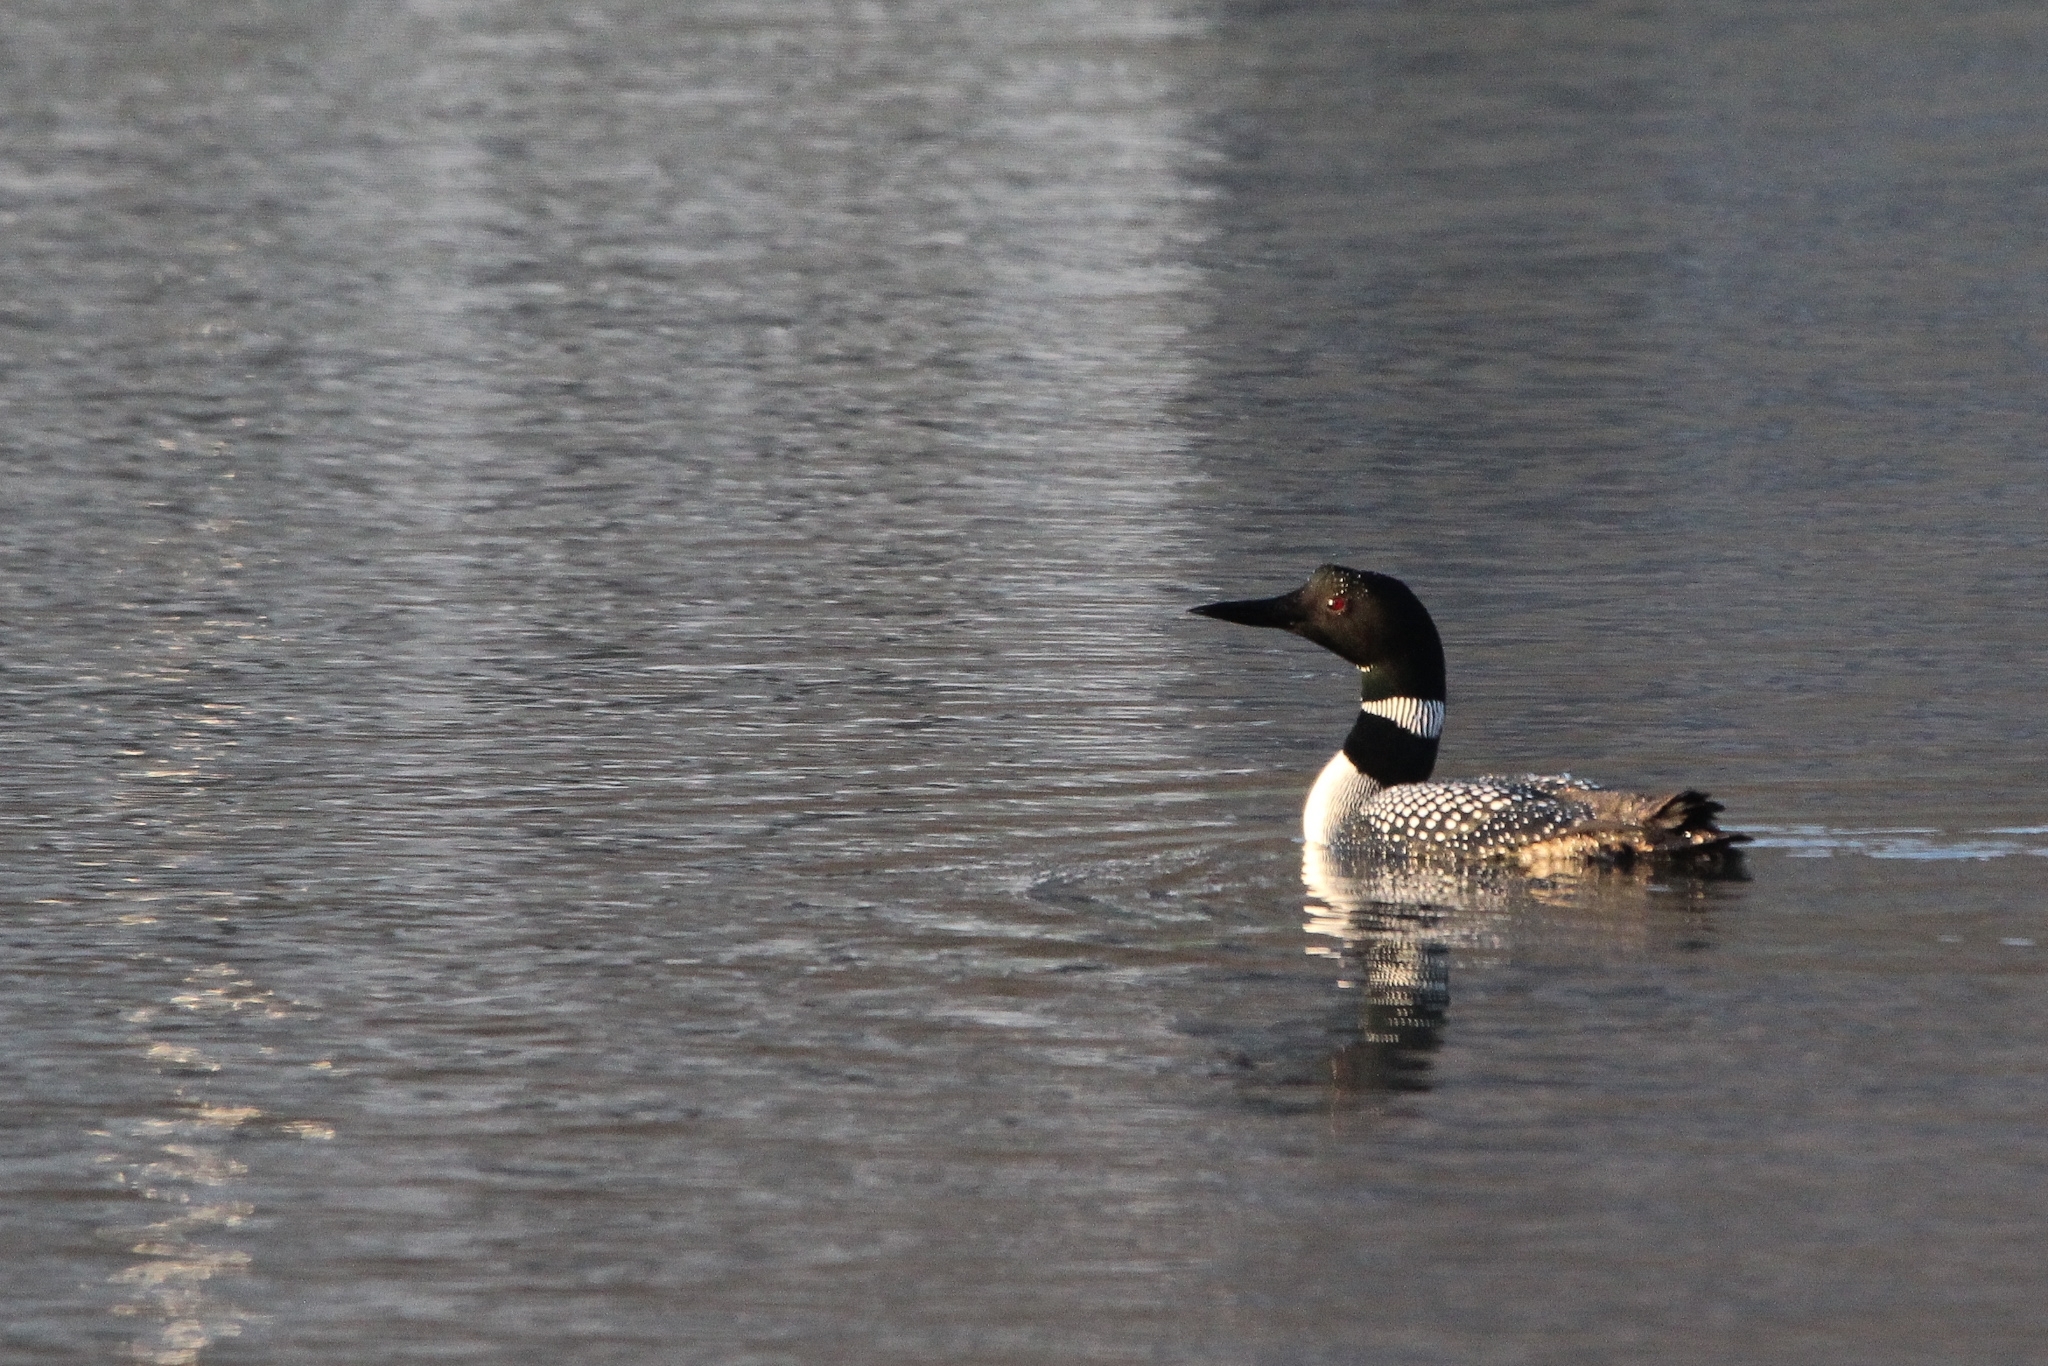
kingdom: Animalia
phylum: Chordata
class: Aves
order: Gaviiformes
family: Gaviidae
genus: Gavia
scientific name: Gavia immer
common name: Common loon
